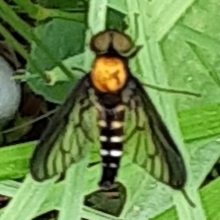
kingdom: Animalia
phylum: Arthropoda
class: Insecta
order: Diptera
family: Rhagionidae
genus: Chrysopilus
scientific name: Chrysopilus thoracicus
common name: Golden-backed snipe fly
